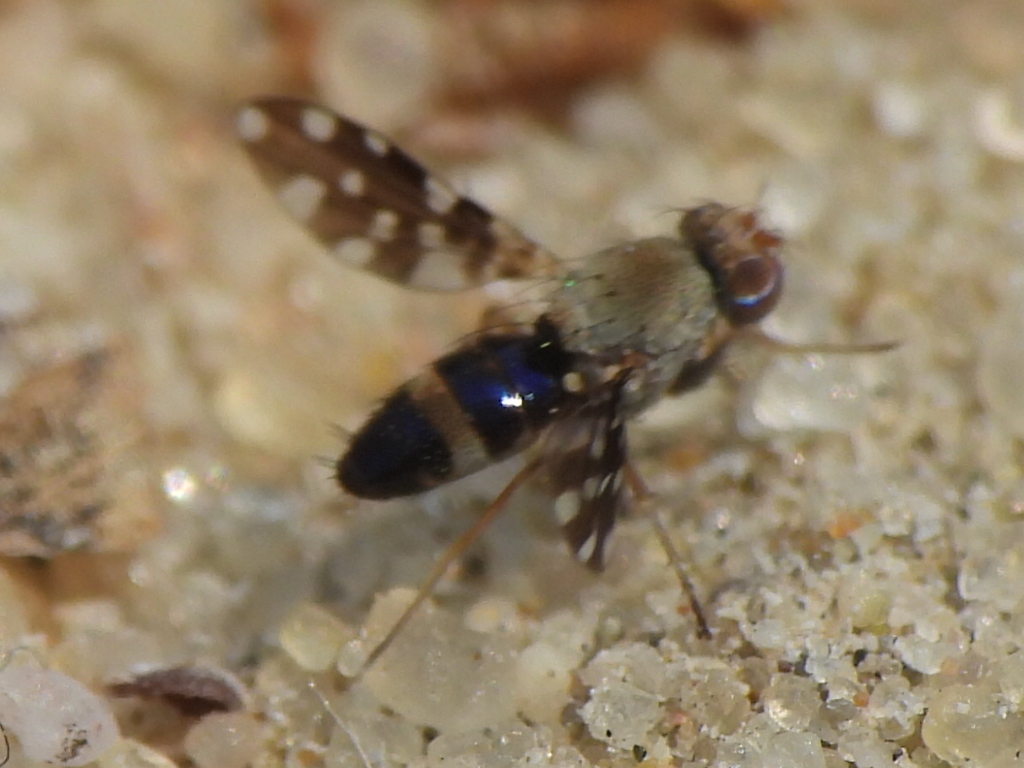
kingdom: Animalia
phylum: Arthropoda
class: Insecta
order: Diptera
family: Ephydridae
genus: Actocetor
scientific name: Actocetor indicus
